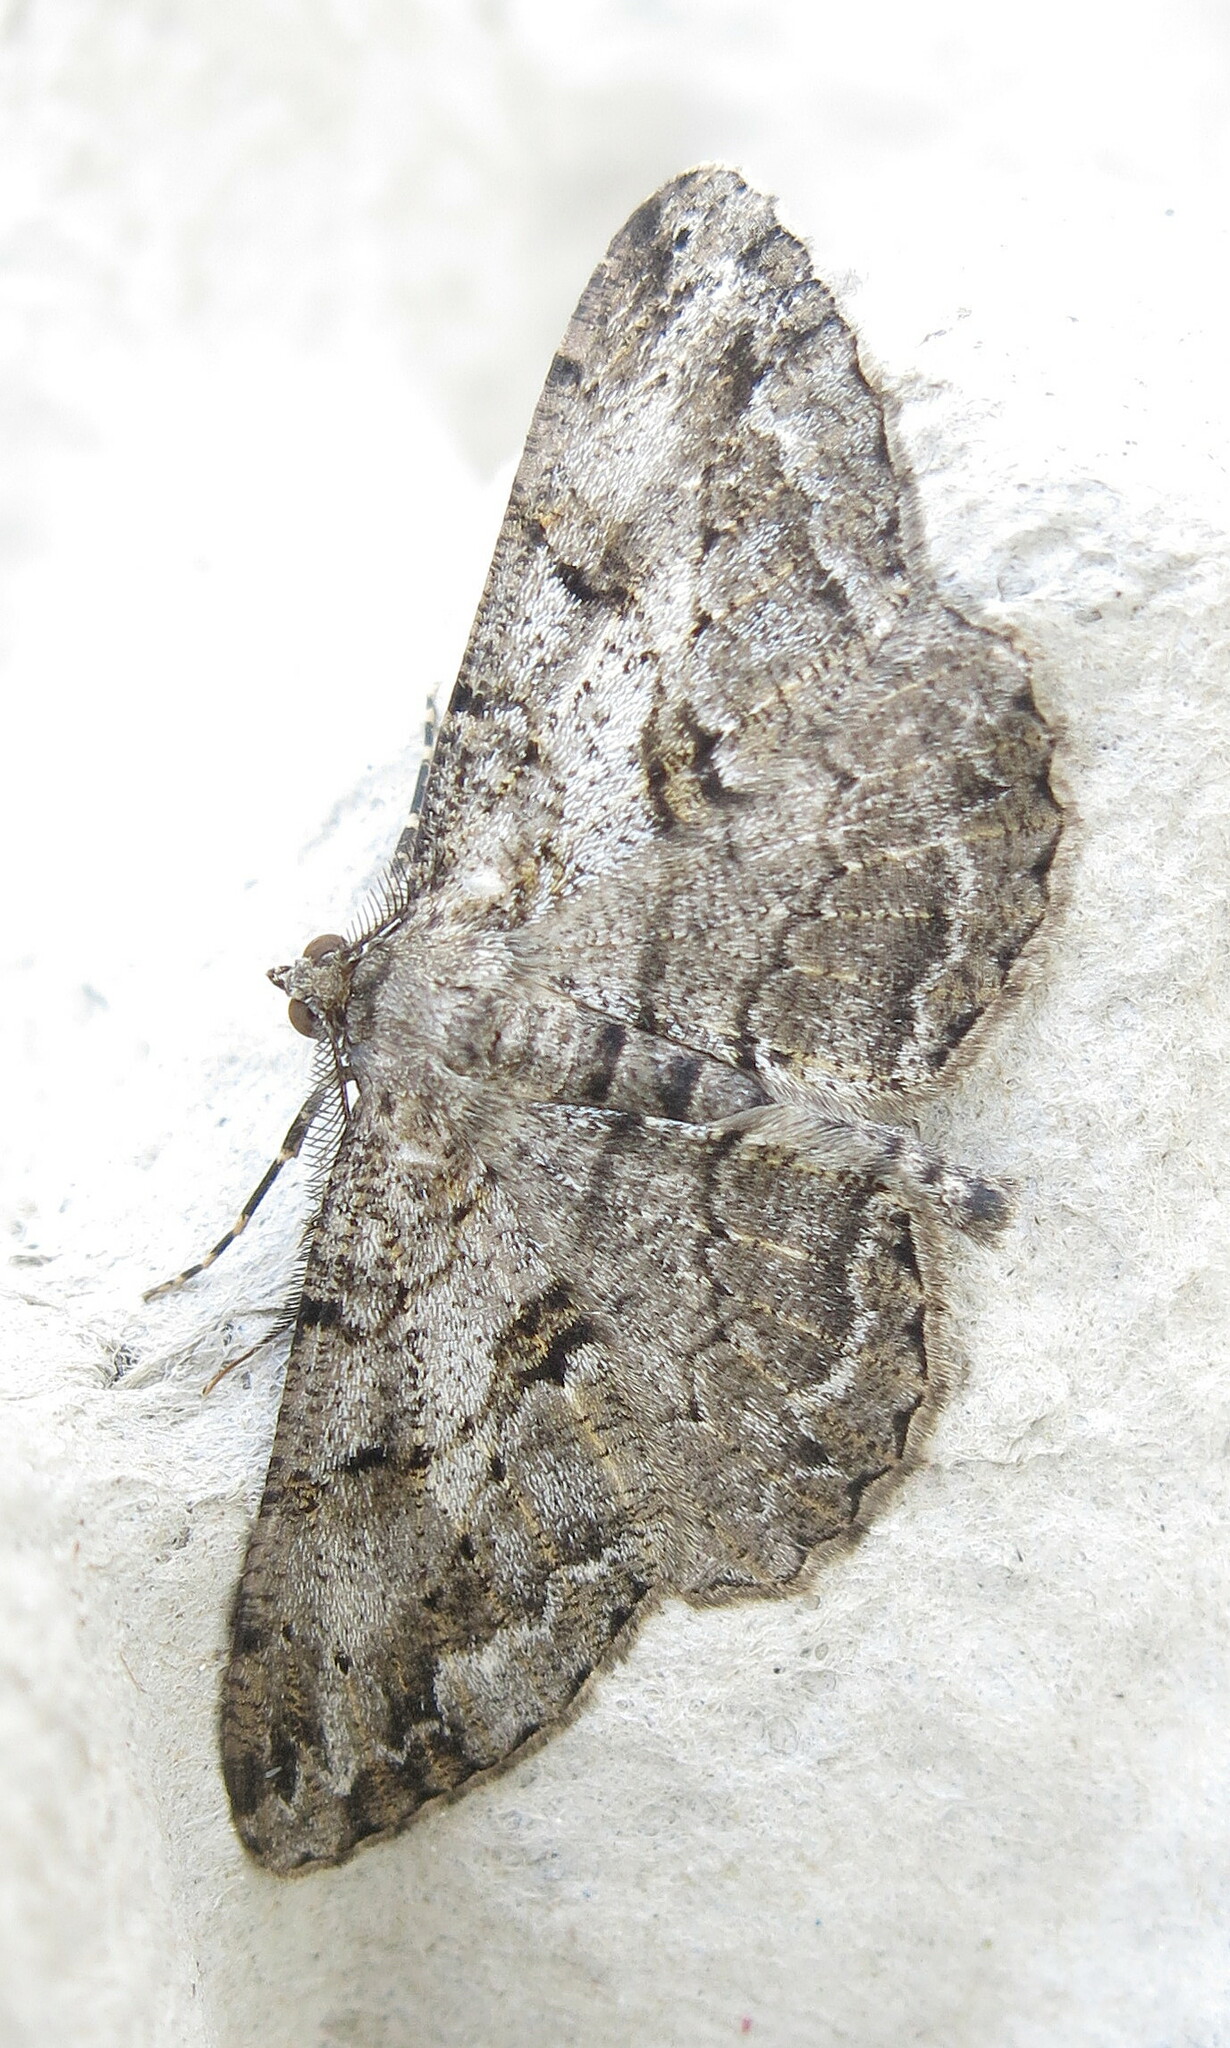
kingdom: Animalia
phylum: Arthropoda
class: Insecta
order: Lepidoptera
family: Geometridae
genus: Peribatodes
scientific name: Peribatodes rhomboidaria
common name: Willow beauty
